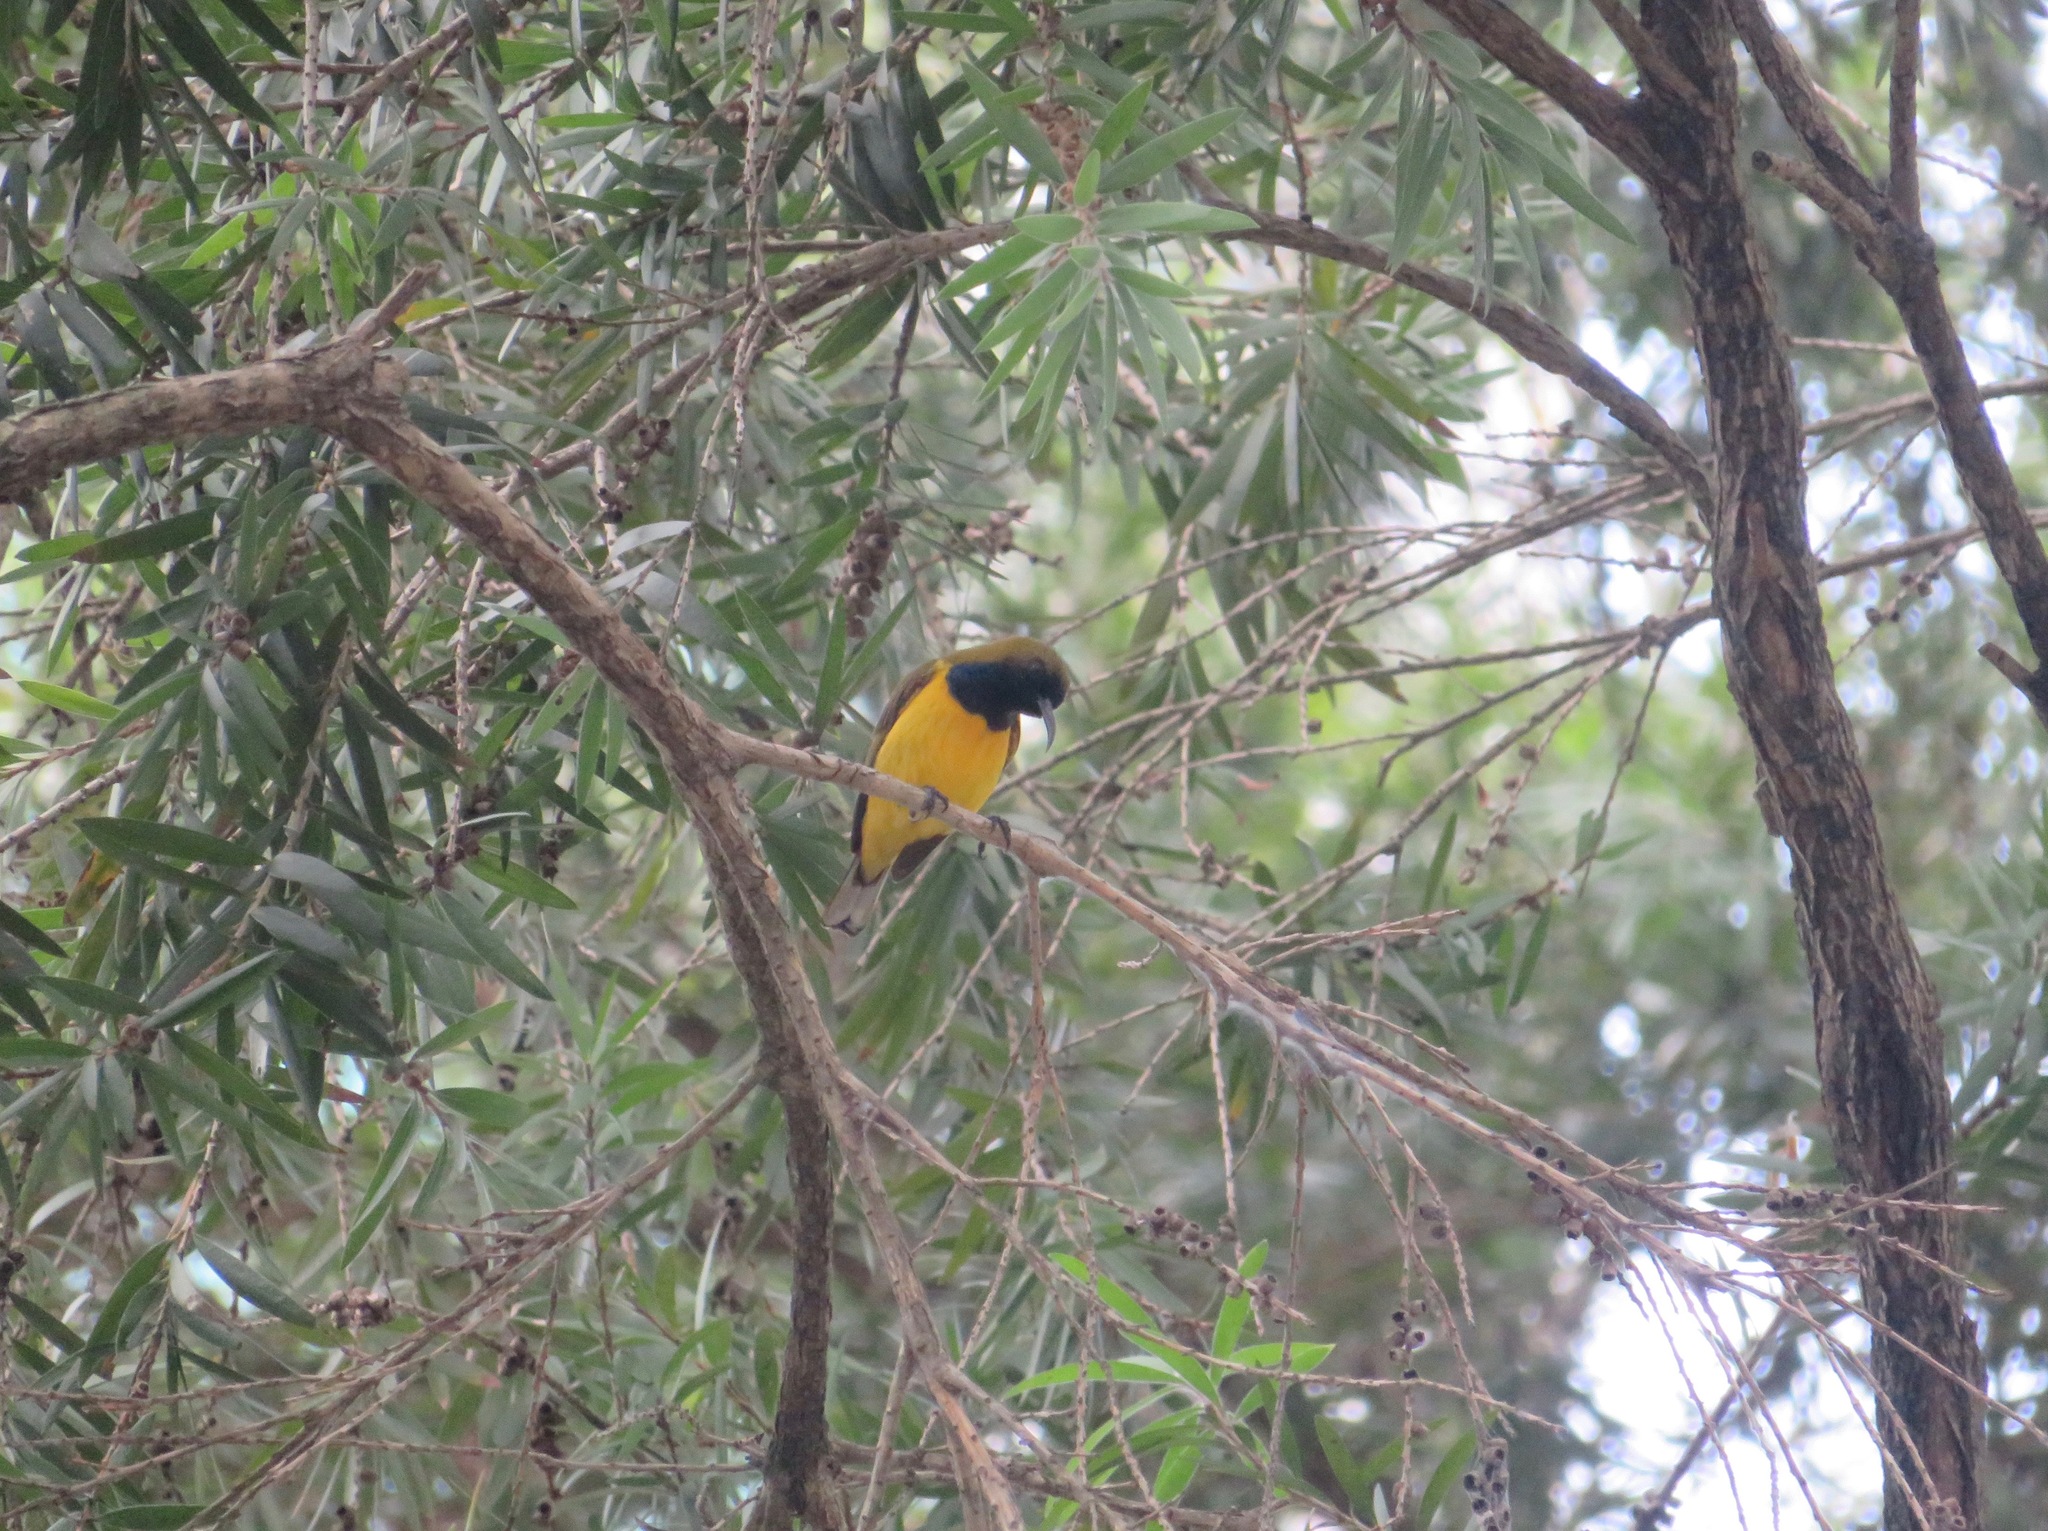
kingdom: Animalia
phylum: Chordata
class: Aves
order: Passeriformes
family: Nectariniidae
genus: Cinnyris
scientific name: Cinnyris
